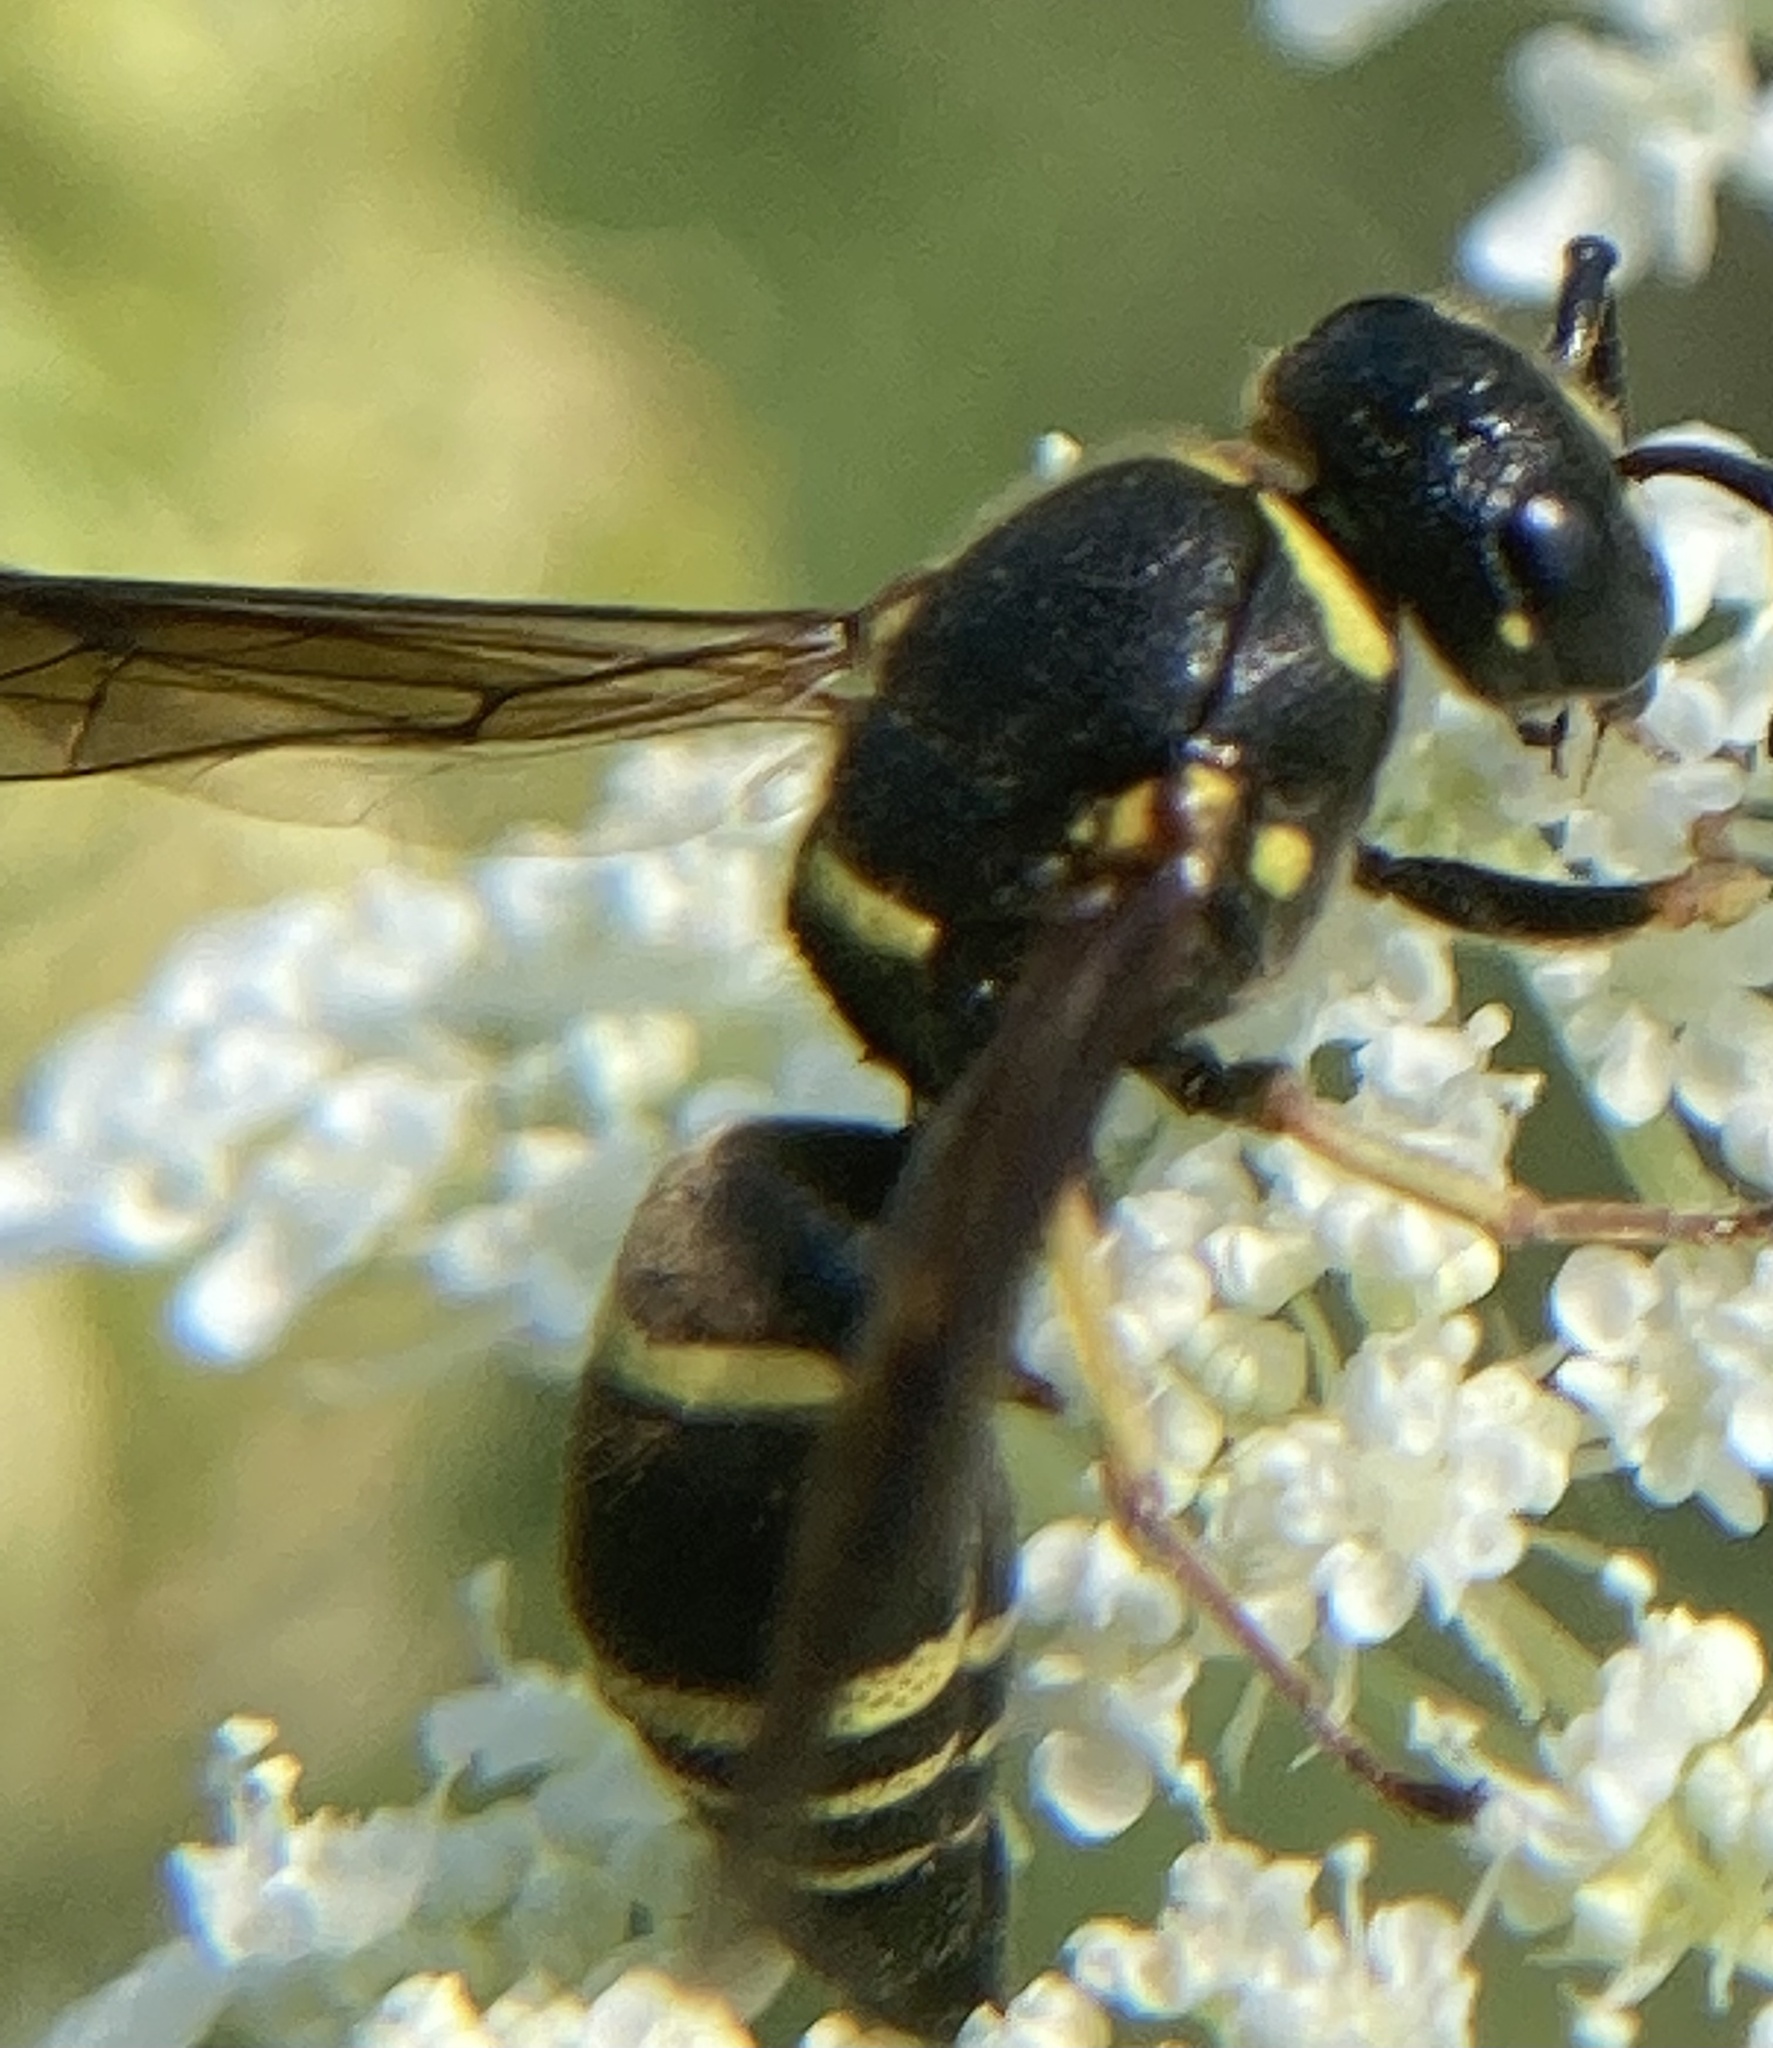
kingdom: Animalia
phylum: Arthropoda
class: Insecta
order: Hymenoptera
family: Eumenidae
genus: Euodynerus
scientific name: Euodynerus foraminatus
